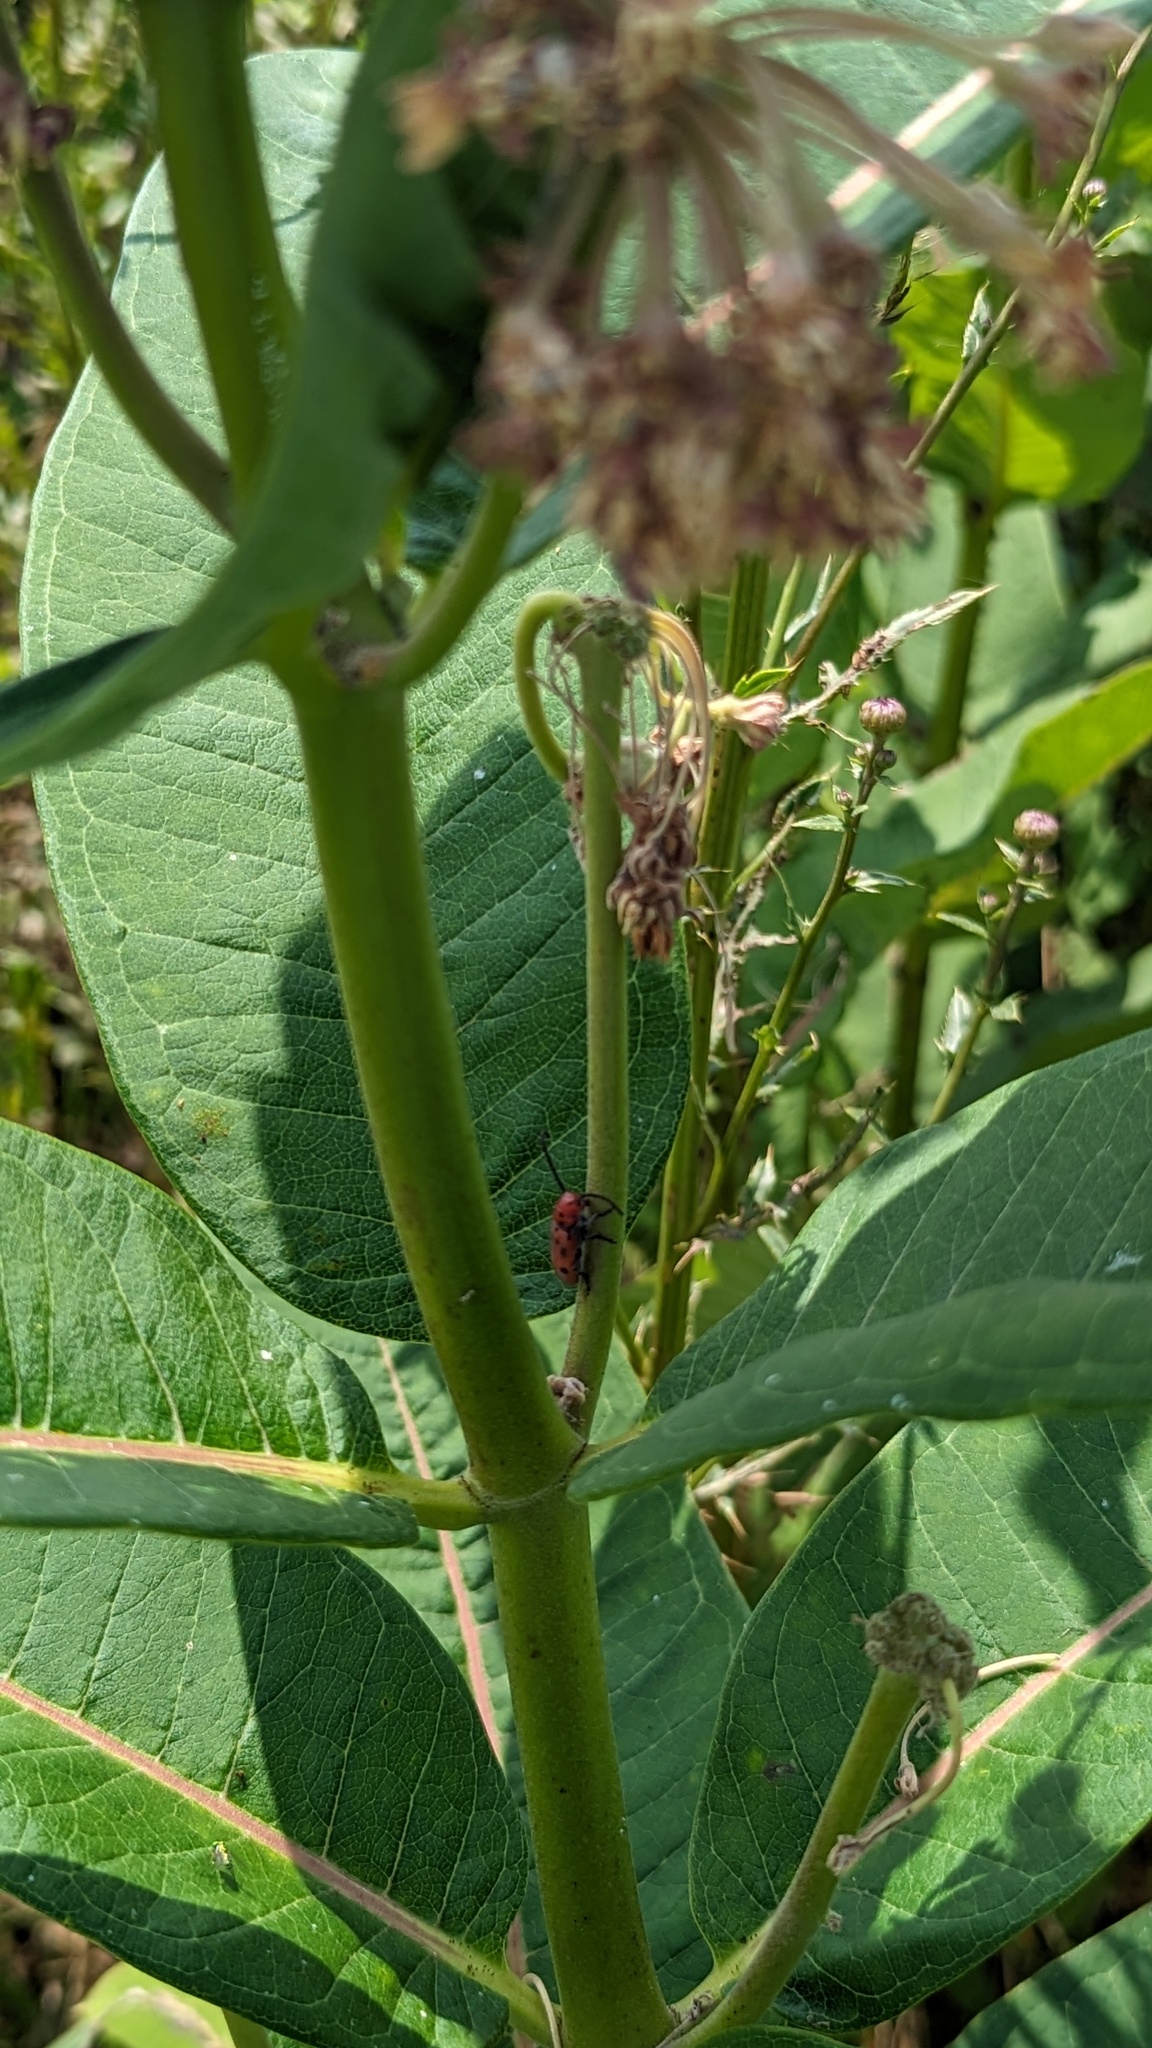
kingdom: Animalia
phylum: Arthropoda
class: Insecta
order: Coleoptera
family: Cerambycidae
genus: Tetraopes
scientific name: Tetraopes tetrophthalmus
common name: Red milkweed beetle
